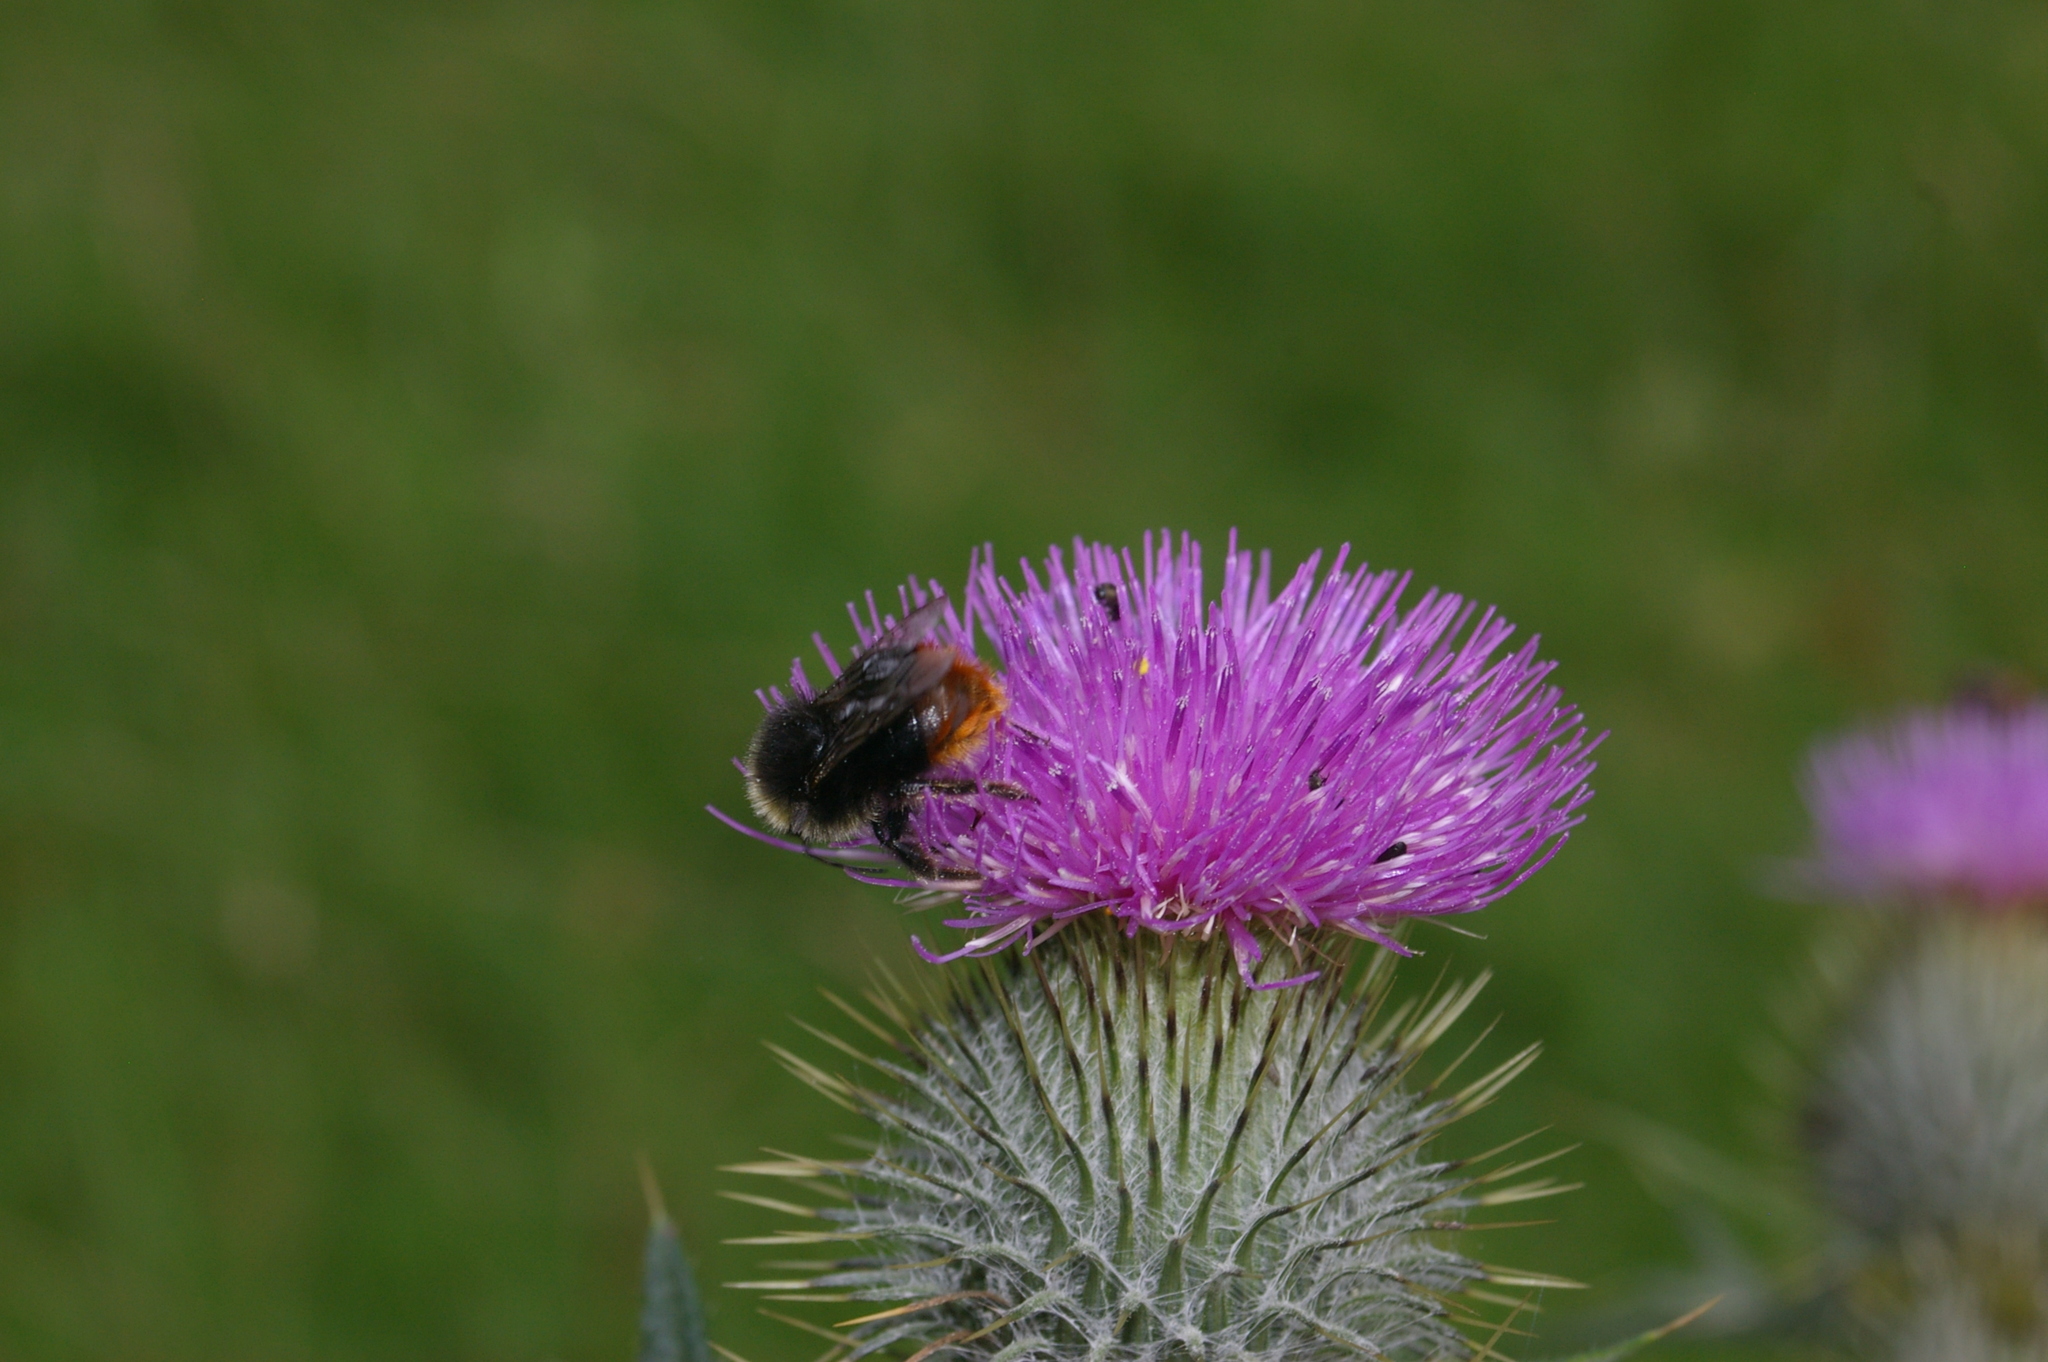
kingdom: Animalia
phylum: Arthropoda
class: Insecta
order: Hymenoptera
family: Apidae
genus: Bombus
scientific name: Bombus lapidarius
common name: Large red-tailed humble-bee
